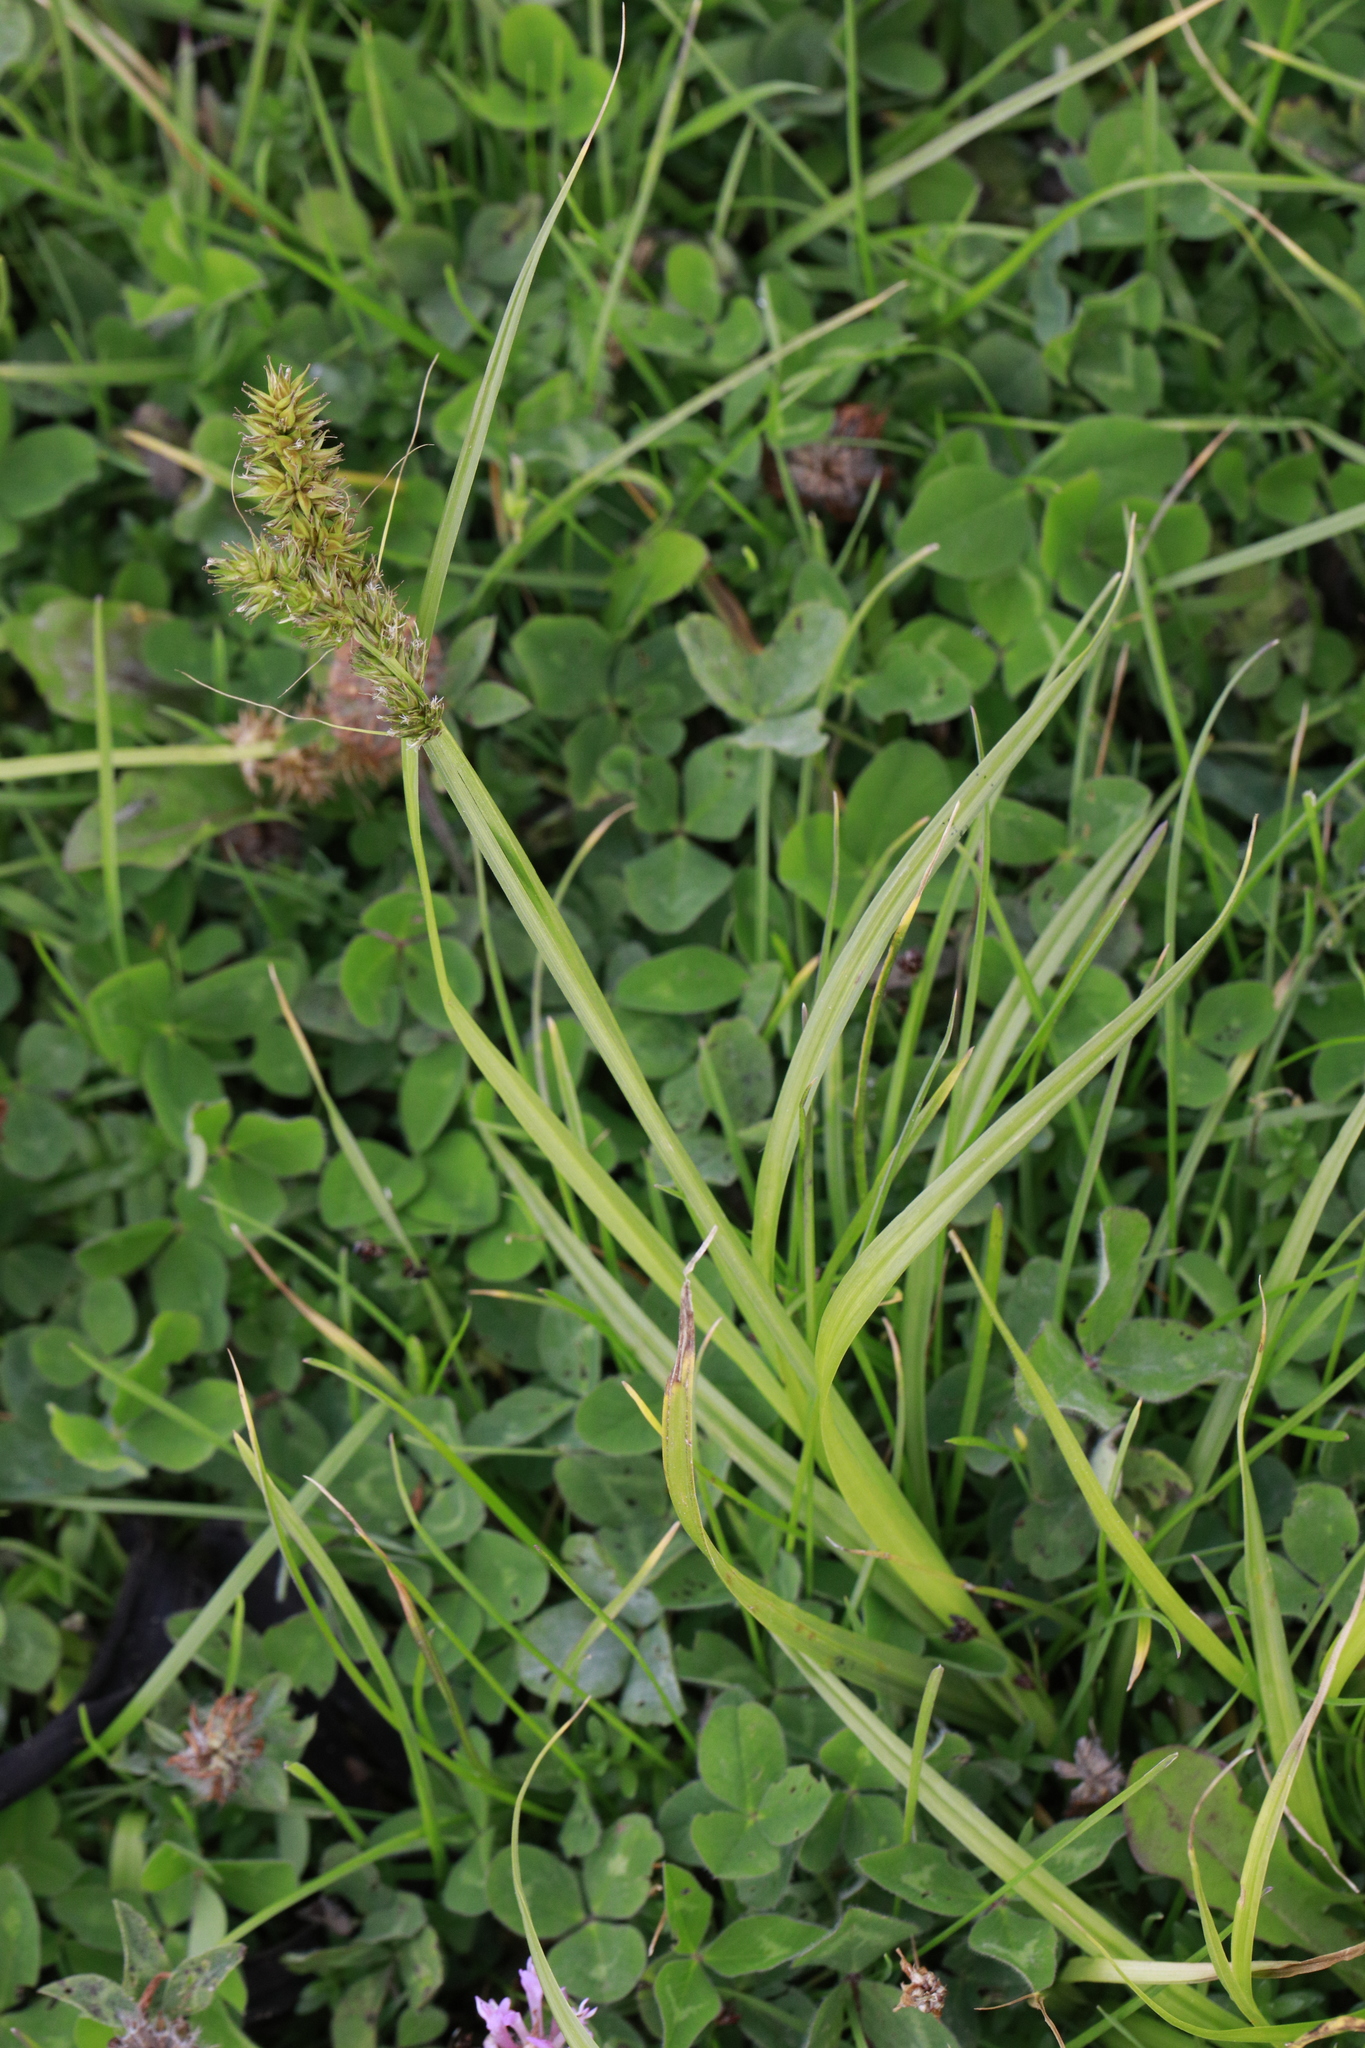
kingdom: Plantae
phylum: Tracheophyta
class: Liliopsida
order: Poales
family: Cyperaceae
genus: Carex
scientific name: Carex otrubae
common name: False fox-sedge
